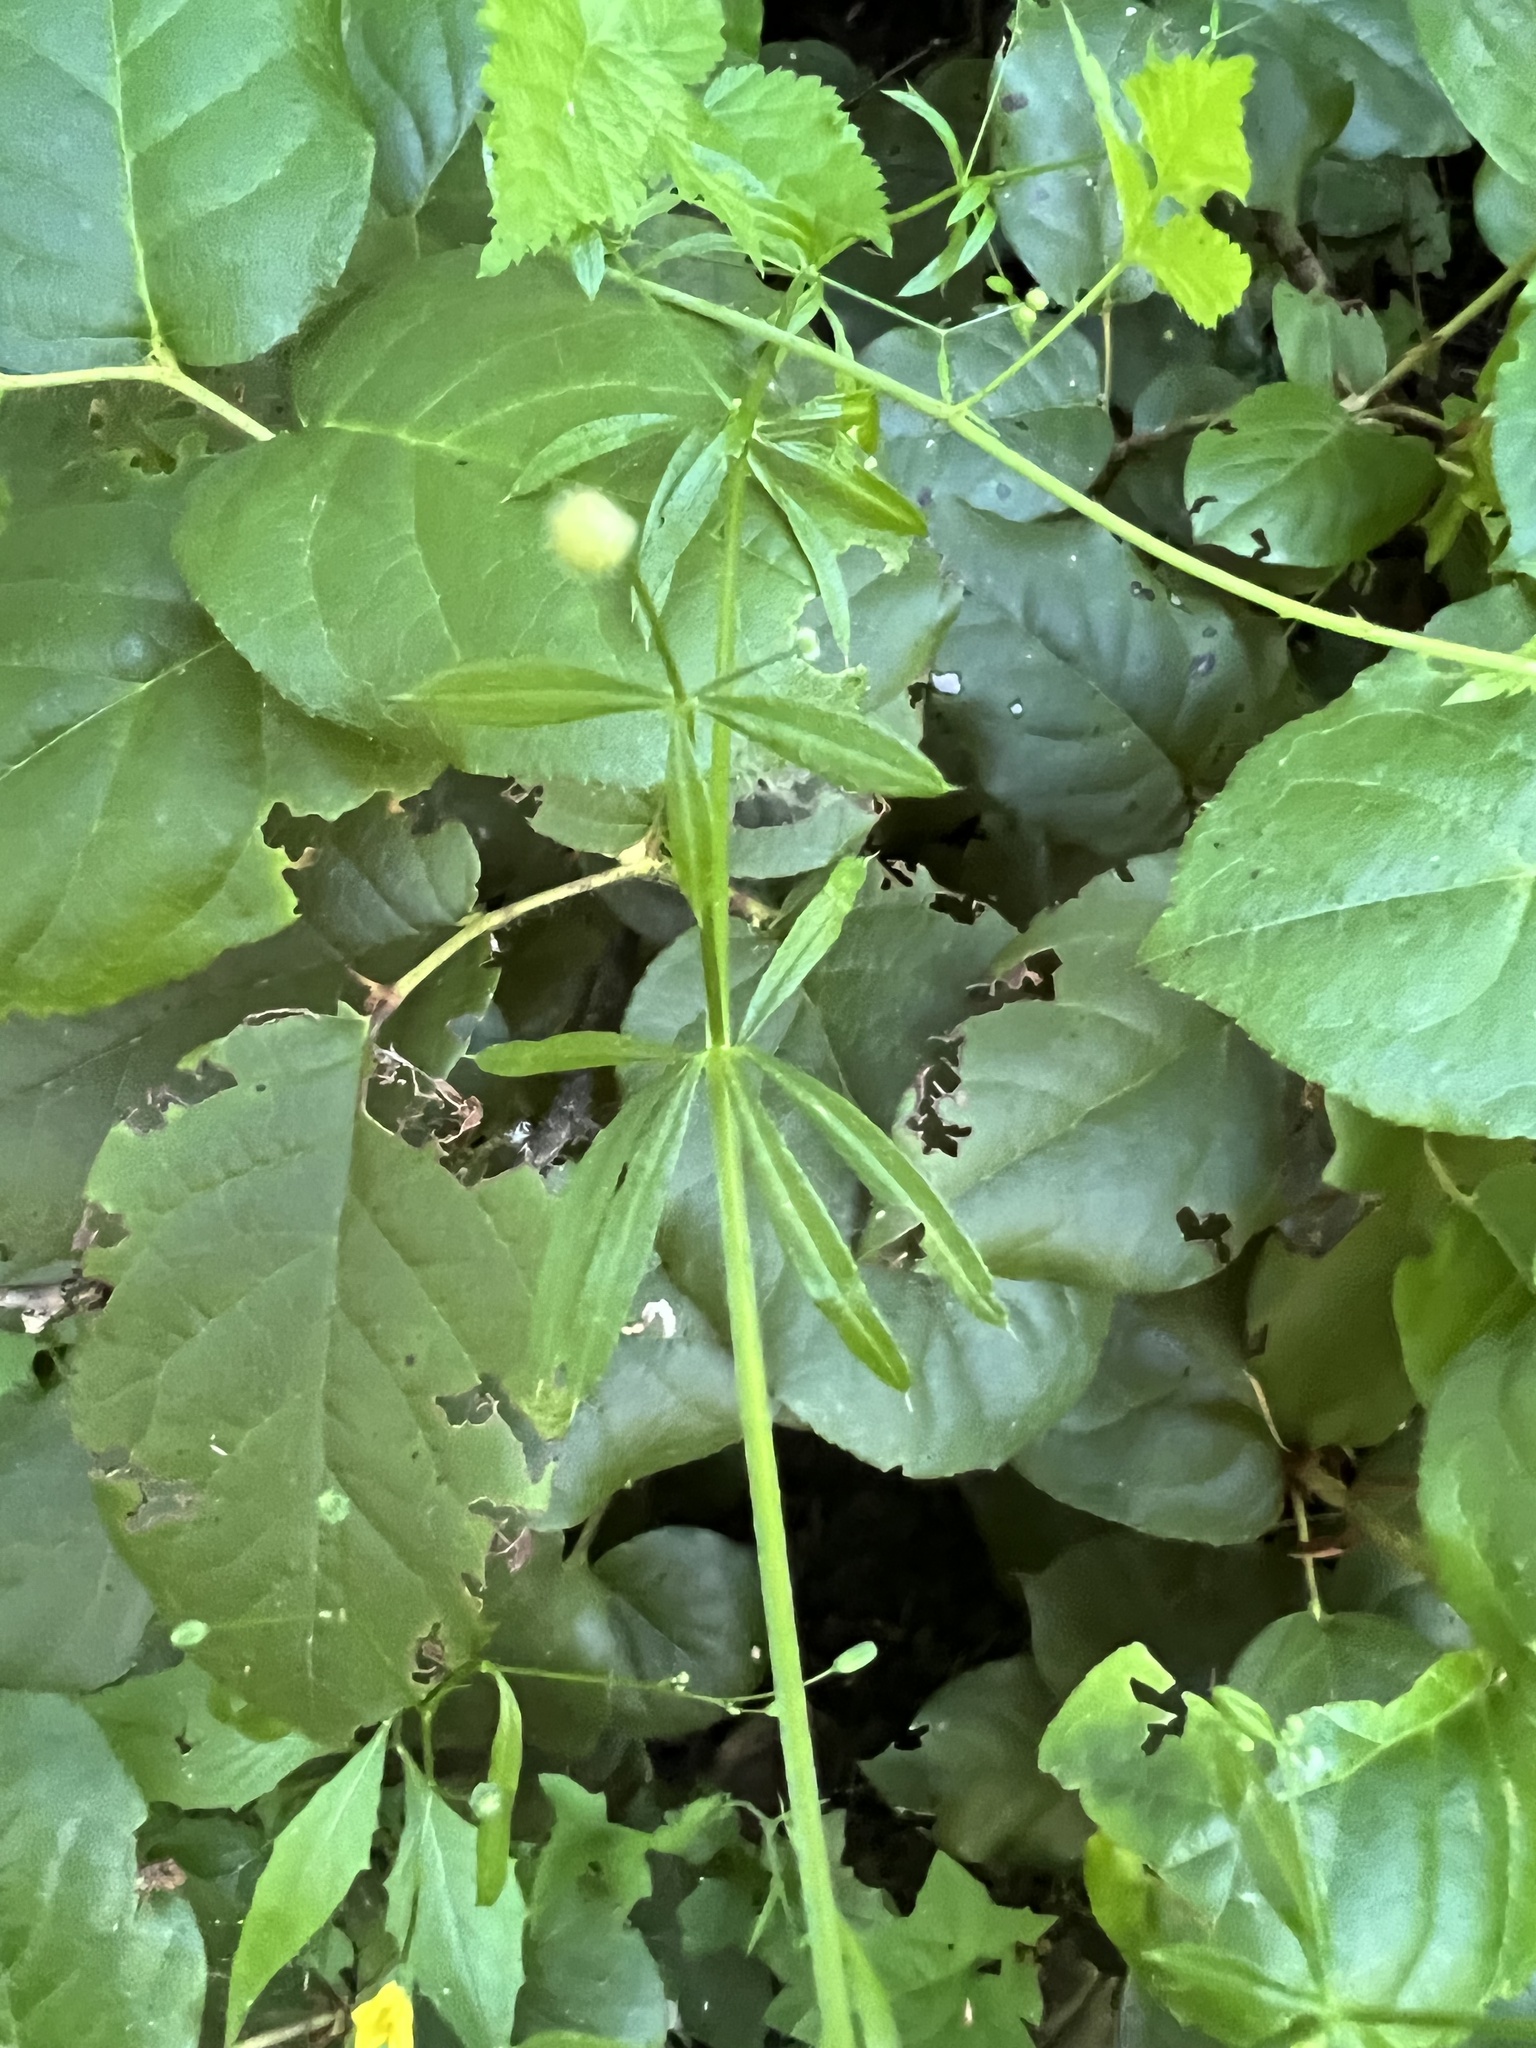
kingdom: Plantae
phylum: Tracheophyta
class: Magnoliopsida
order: Gentianales
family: Rubiaceae
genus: Galium
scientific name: Galium aparine
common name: Cleavers
